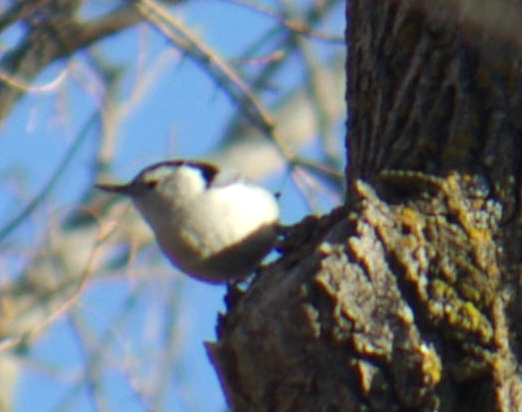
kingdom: Animalia
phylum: Chordata
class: Aves
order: Passeriformes
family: Sittidae
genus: Sitta
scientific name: Sitta carolinensis
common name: White-breasted nuthatch
